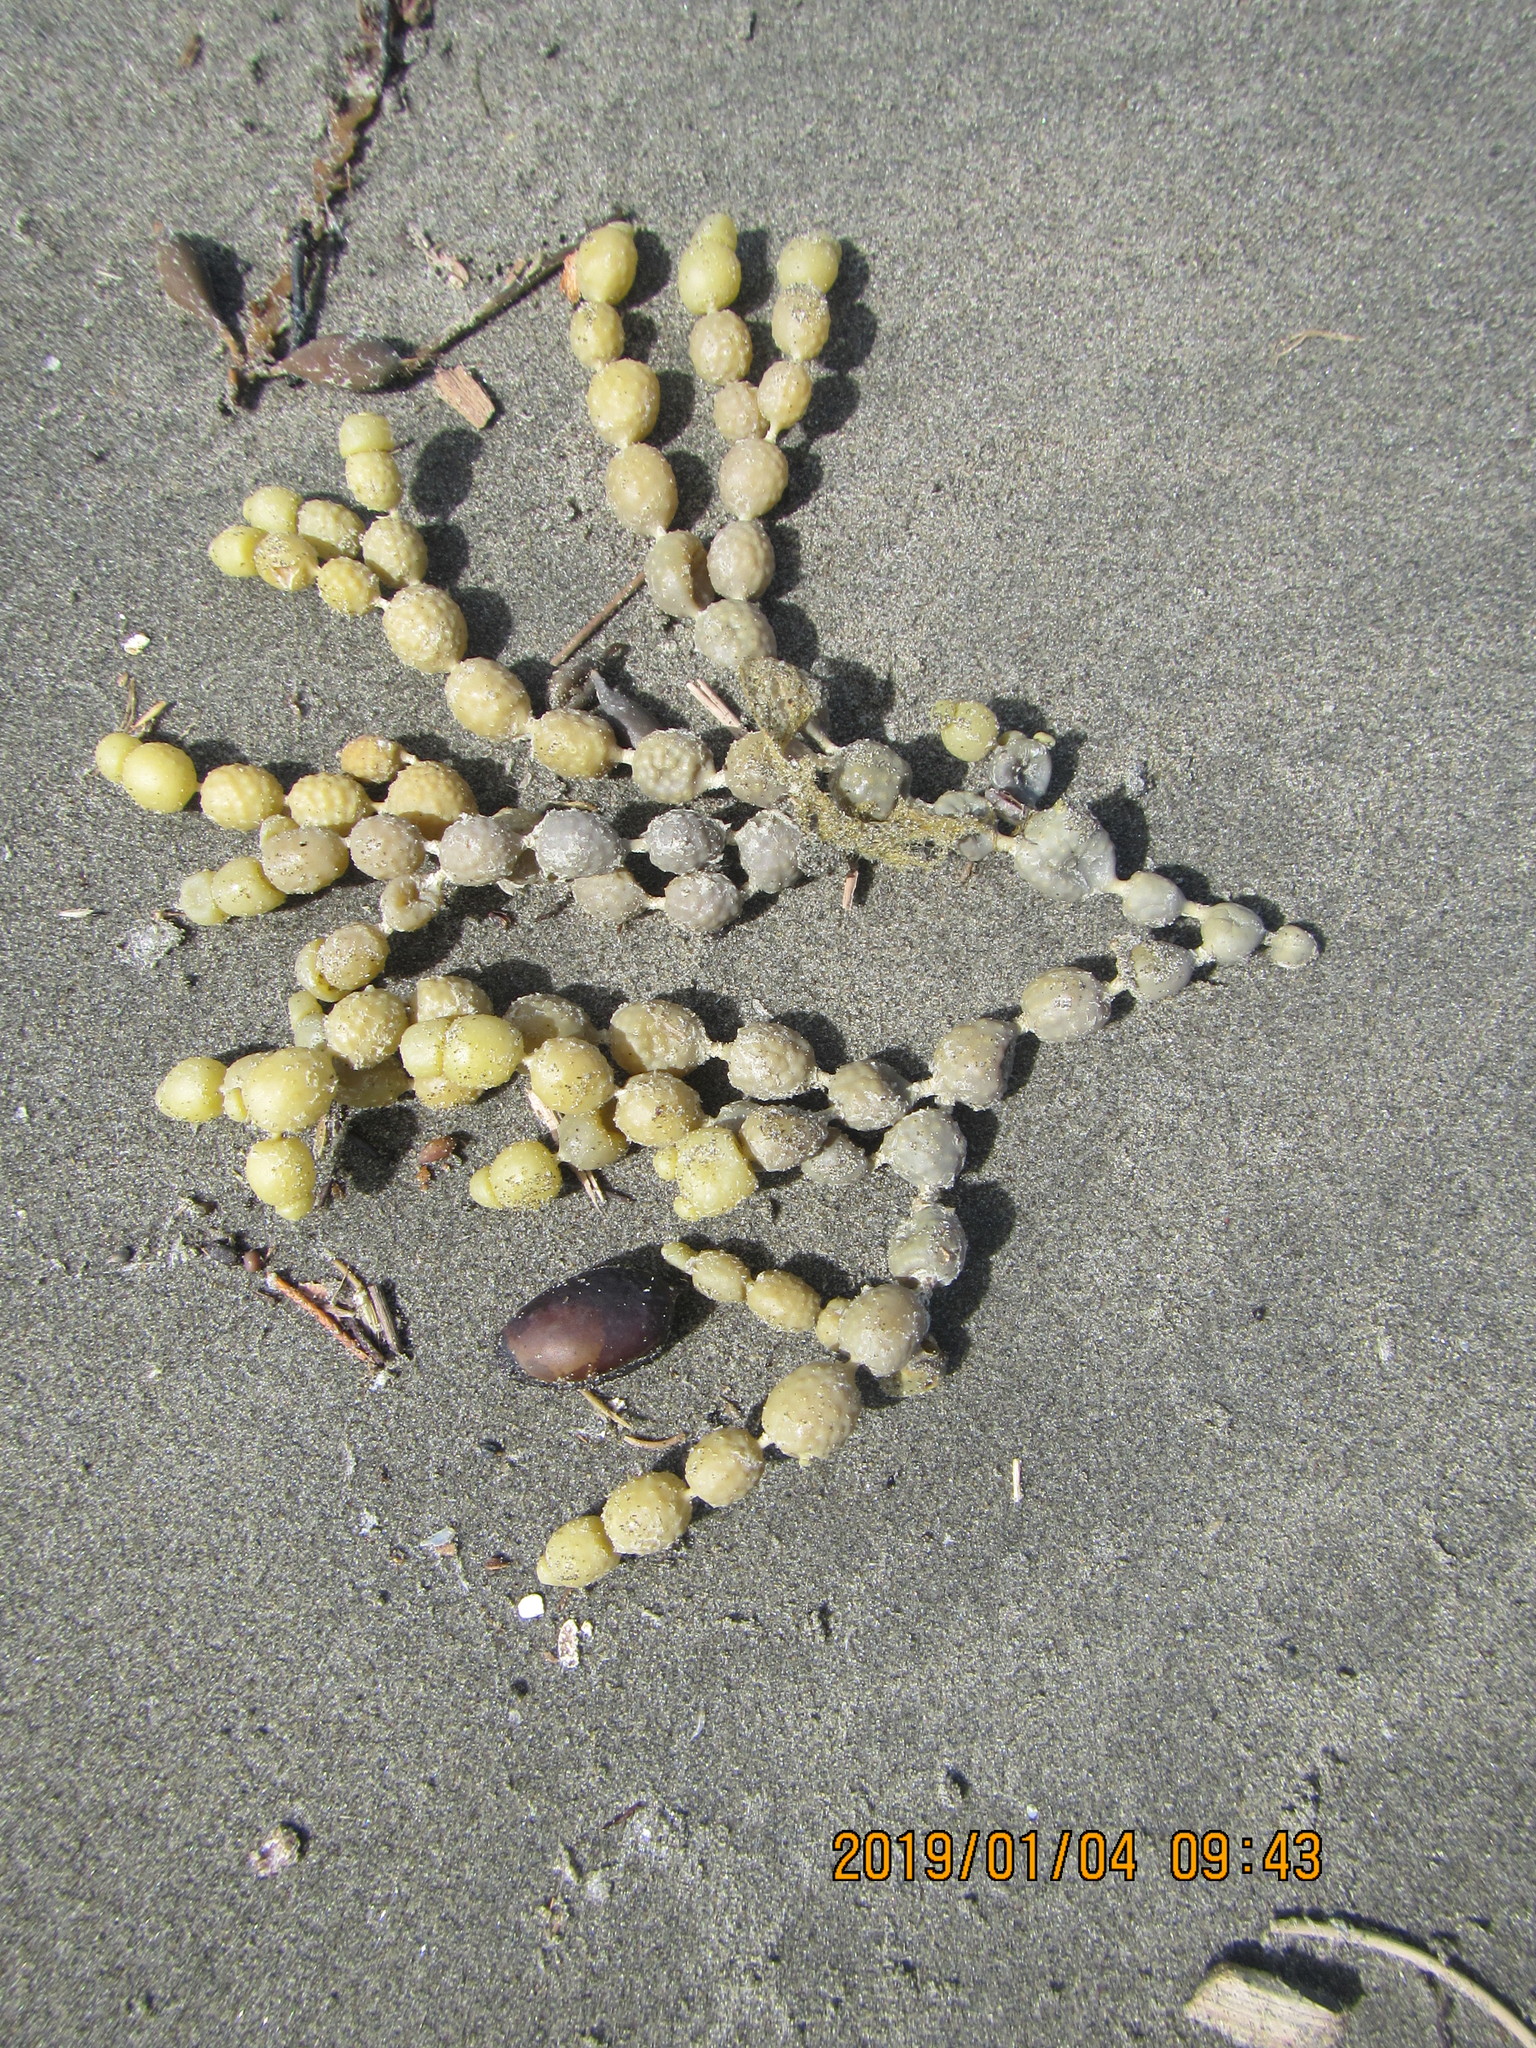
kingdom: Chromista
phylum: Ochrophyta
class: Phaeophyceae
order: Fucales
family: Hormosiraceae
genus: Hormosira
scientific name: Hormosira banksii
